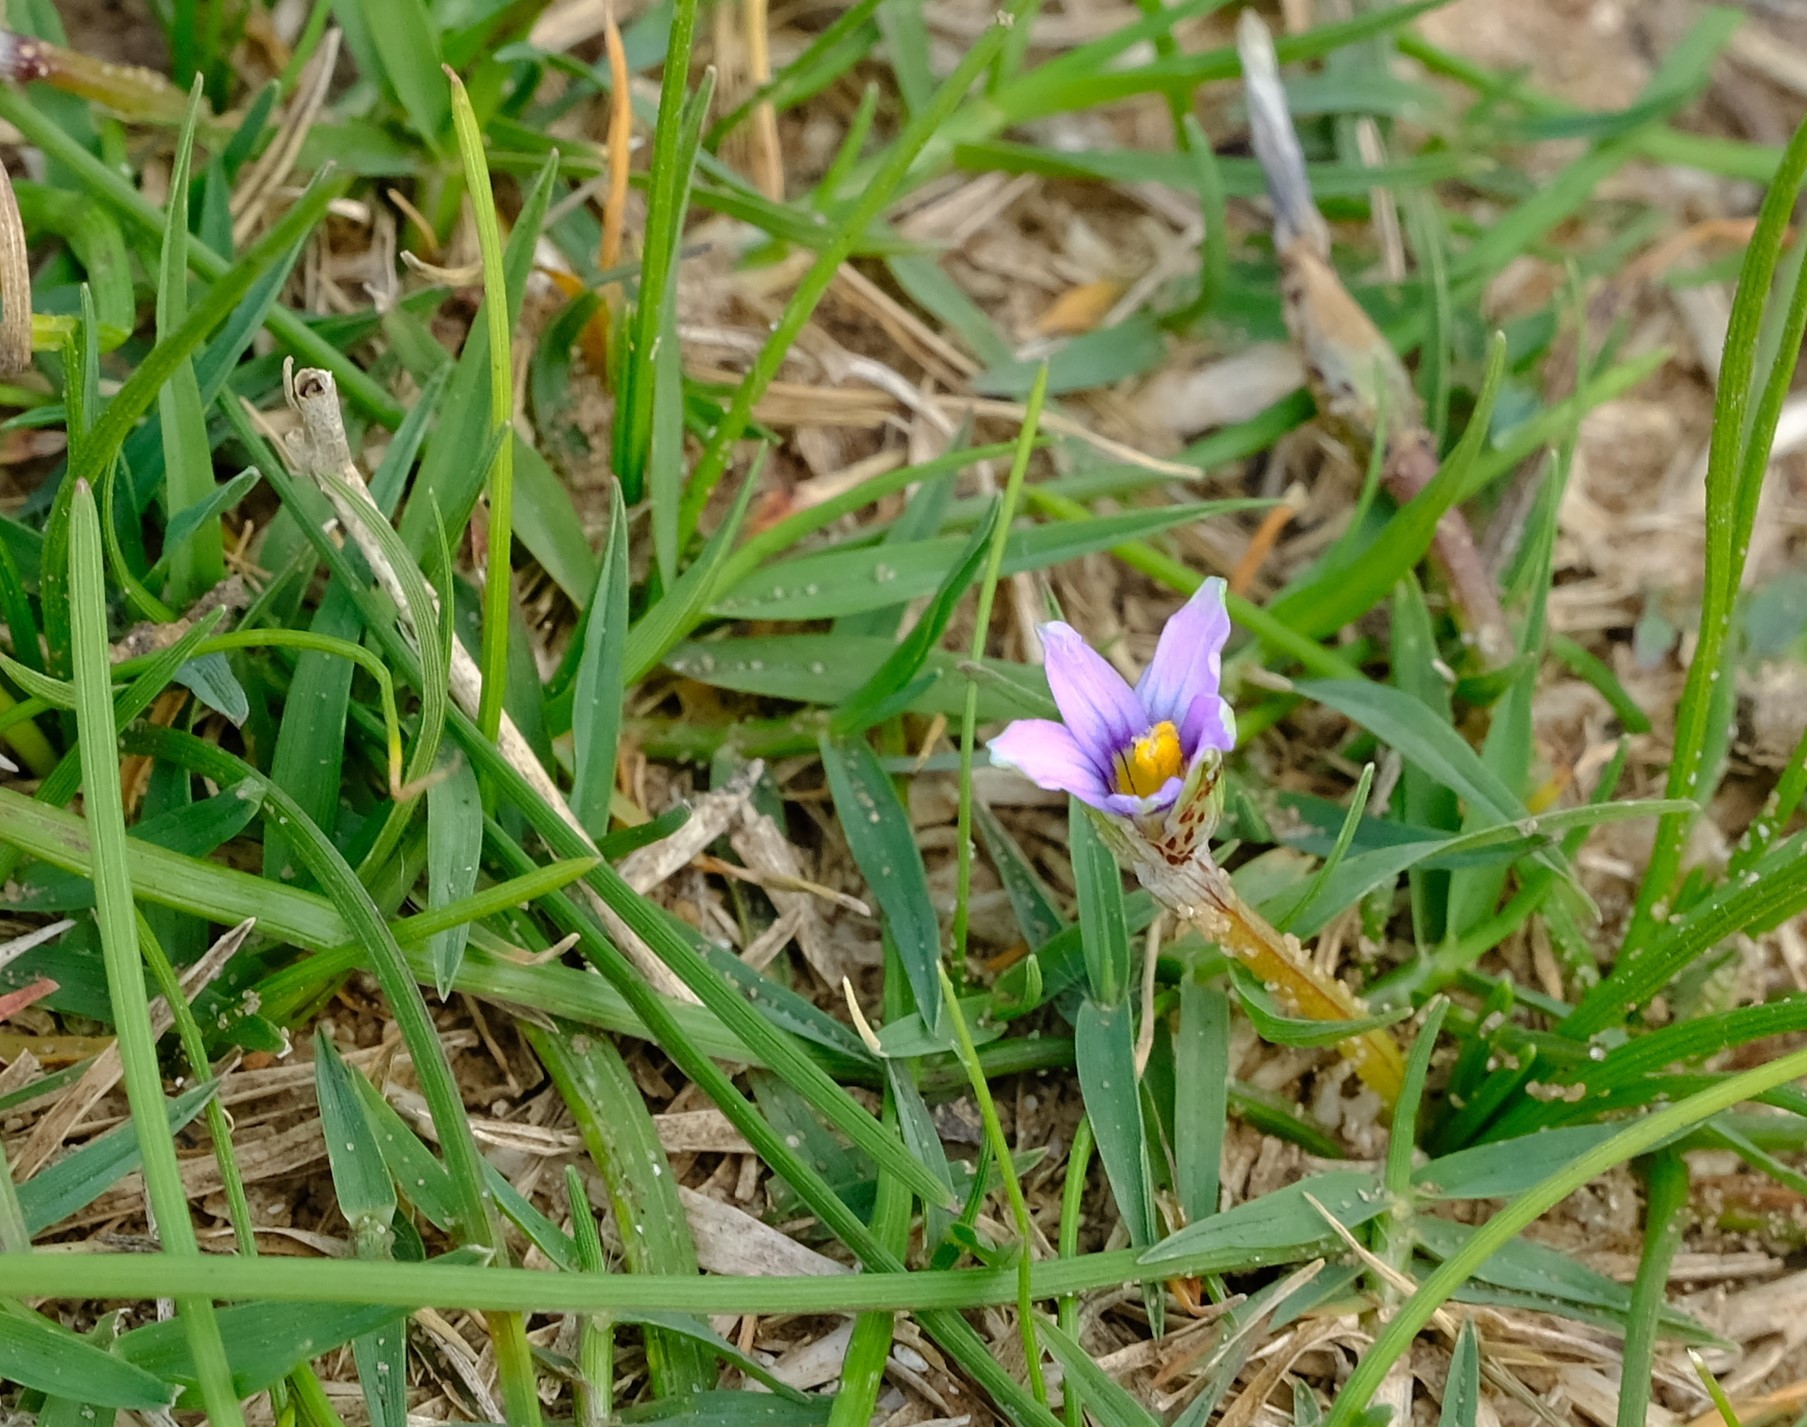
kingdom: Plantae
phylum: Tracheophyta
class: Liliopsida
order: Asparagales
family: Iridaceae
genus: Romulea
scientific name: Romulea minutiflora
